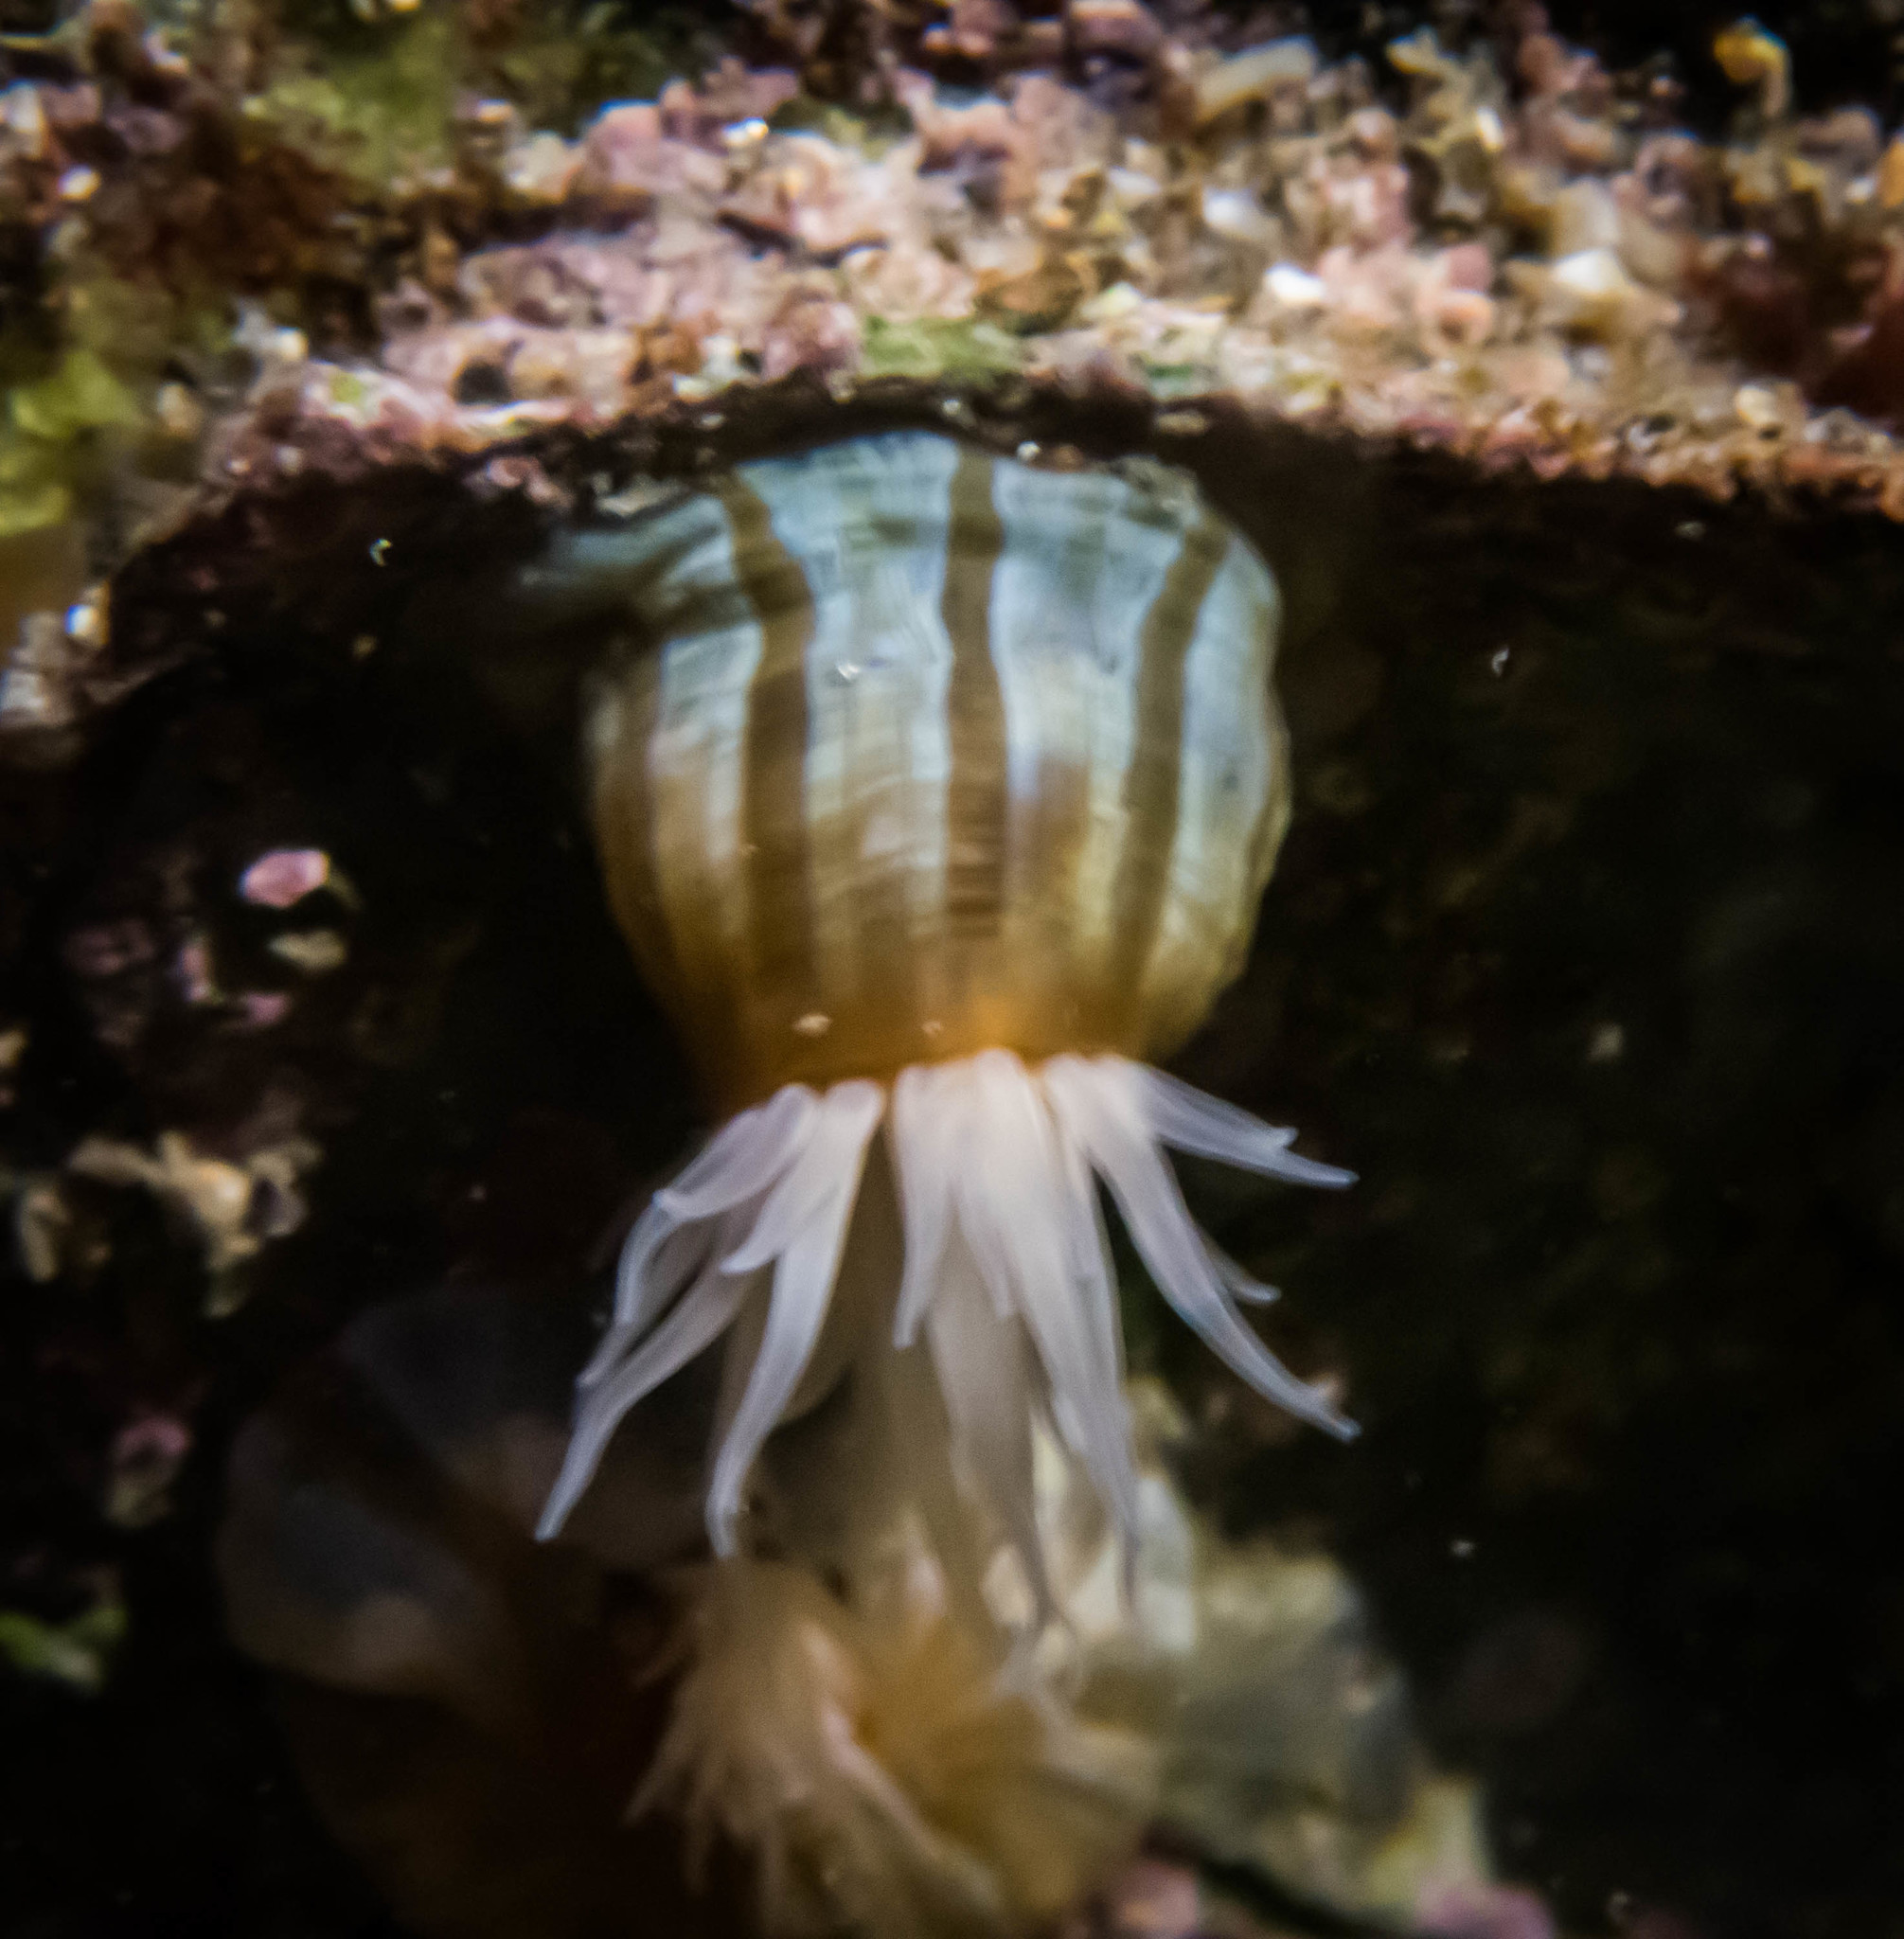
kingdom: Animalia
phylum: Cnidaria
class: Anthozoa
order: Actiniaria
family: Sagartiidae
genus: Anthothoe
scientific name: Anthothoe albocincta
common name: Orange striped anemone
